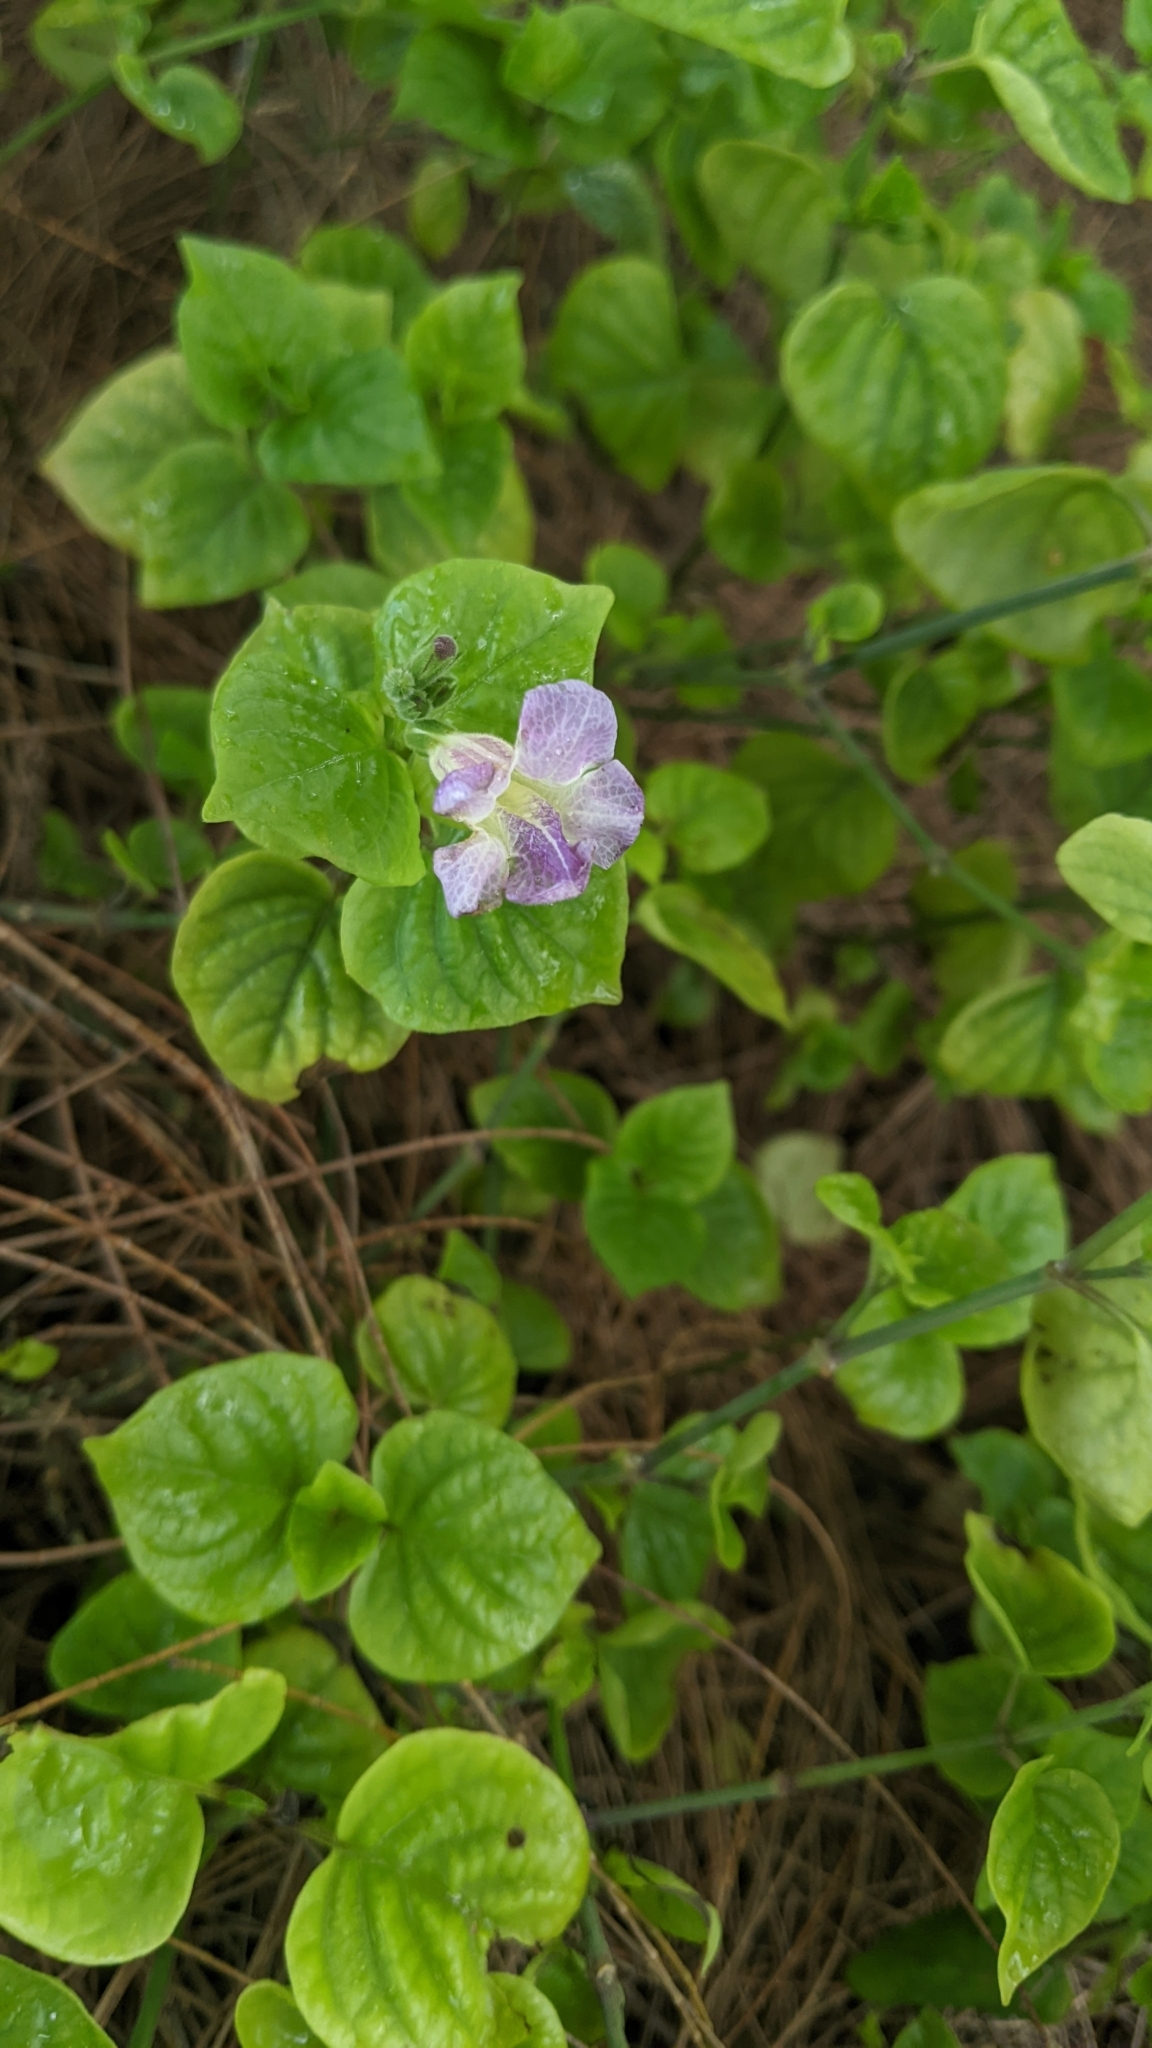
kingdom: Plantae
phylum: Tracheophyta
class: Magnoliopsida
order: Lamiales
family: Acanthaceae
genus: Asystasia
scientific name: Asystasia gangetica
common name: Chinese violet
